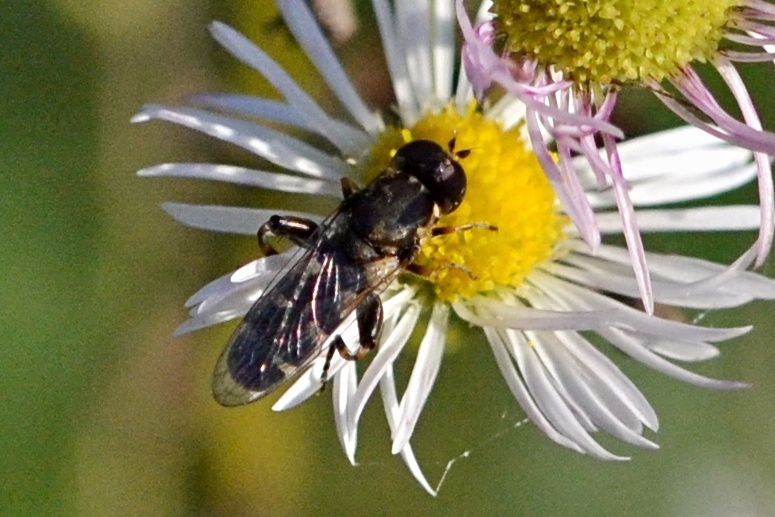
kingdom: Animalia
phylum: Arthropoda
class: Insecta
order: Diptera
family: Syrphidae
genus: Syritta
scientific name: Syritta pipiens
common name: Hover fly
